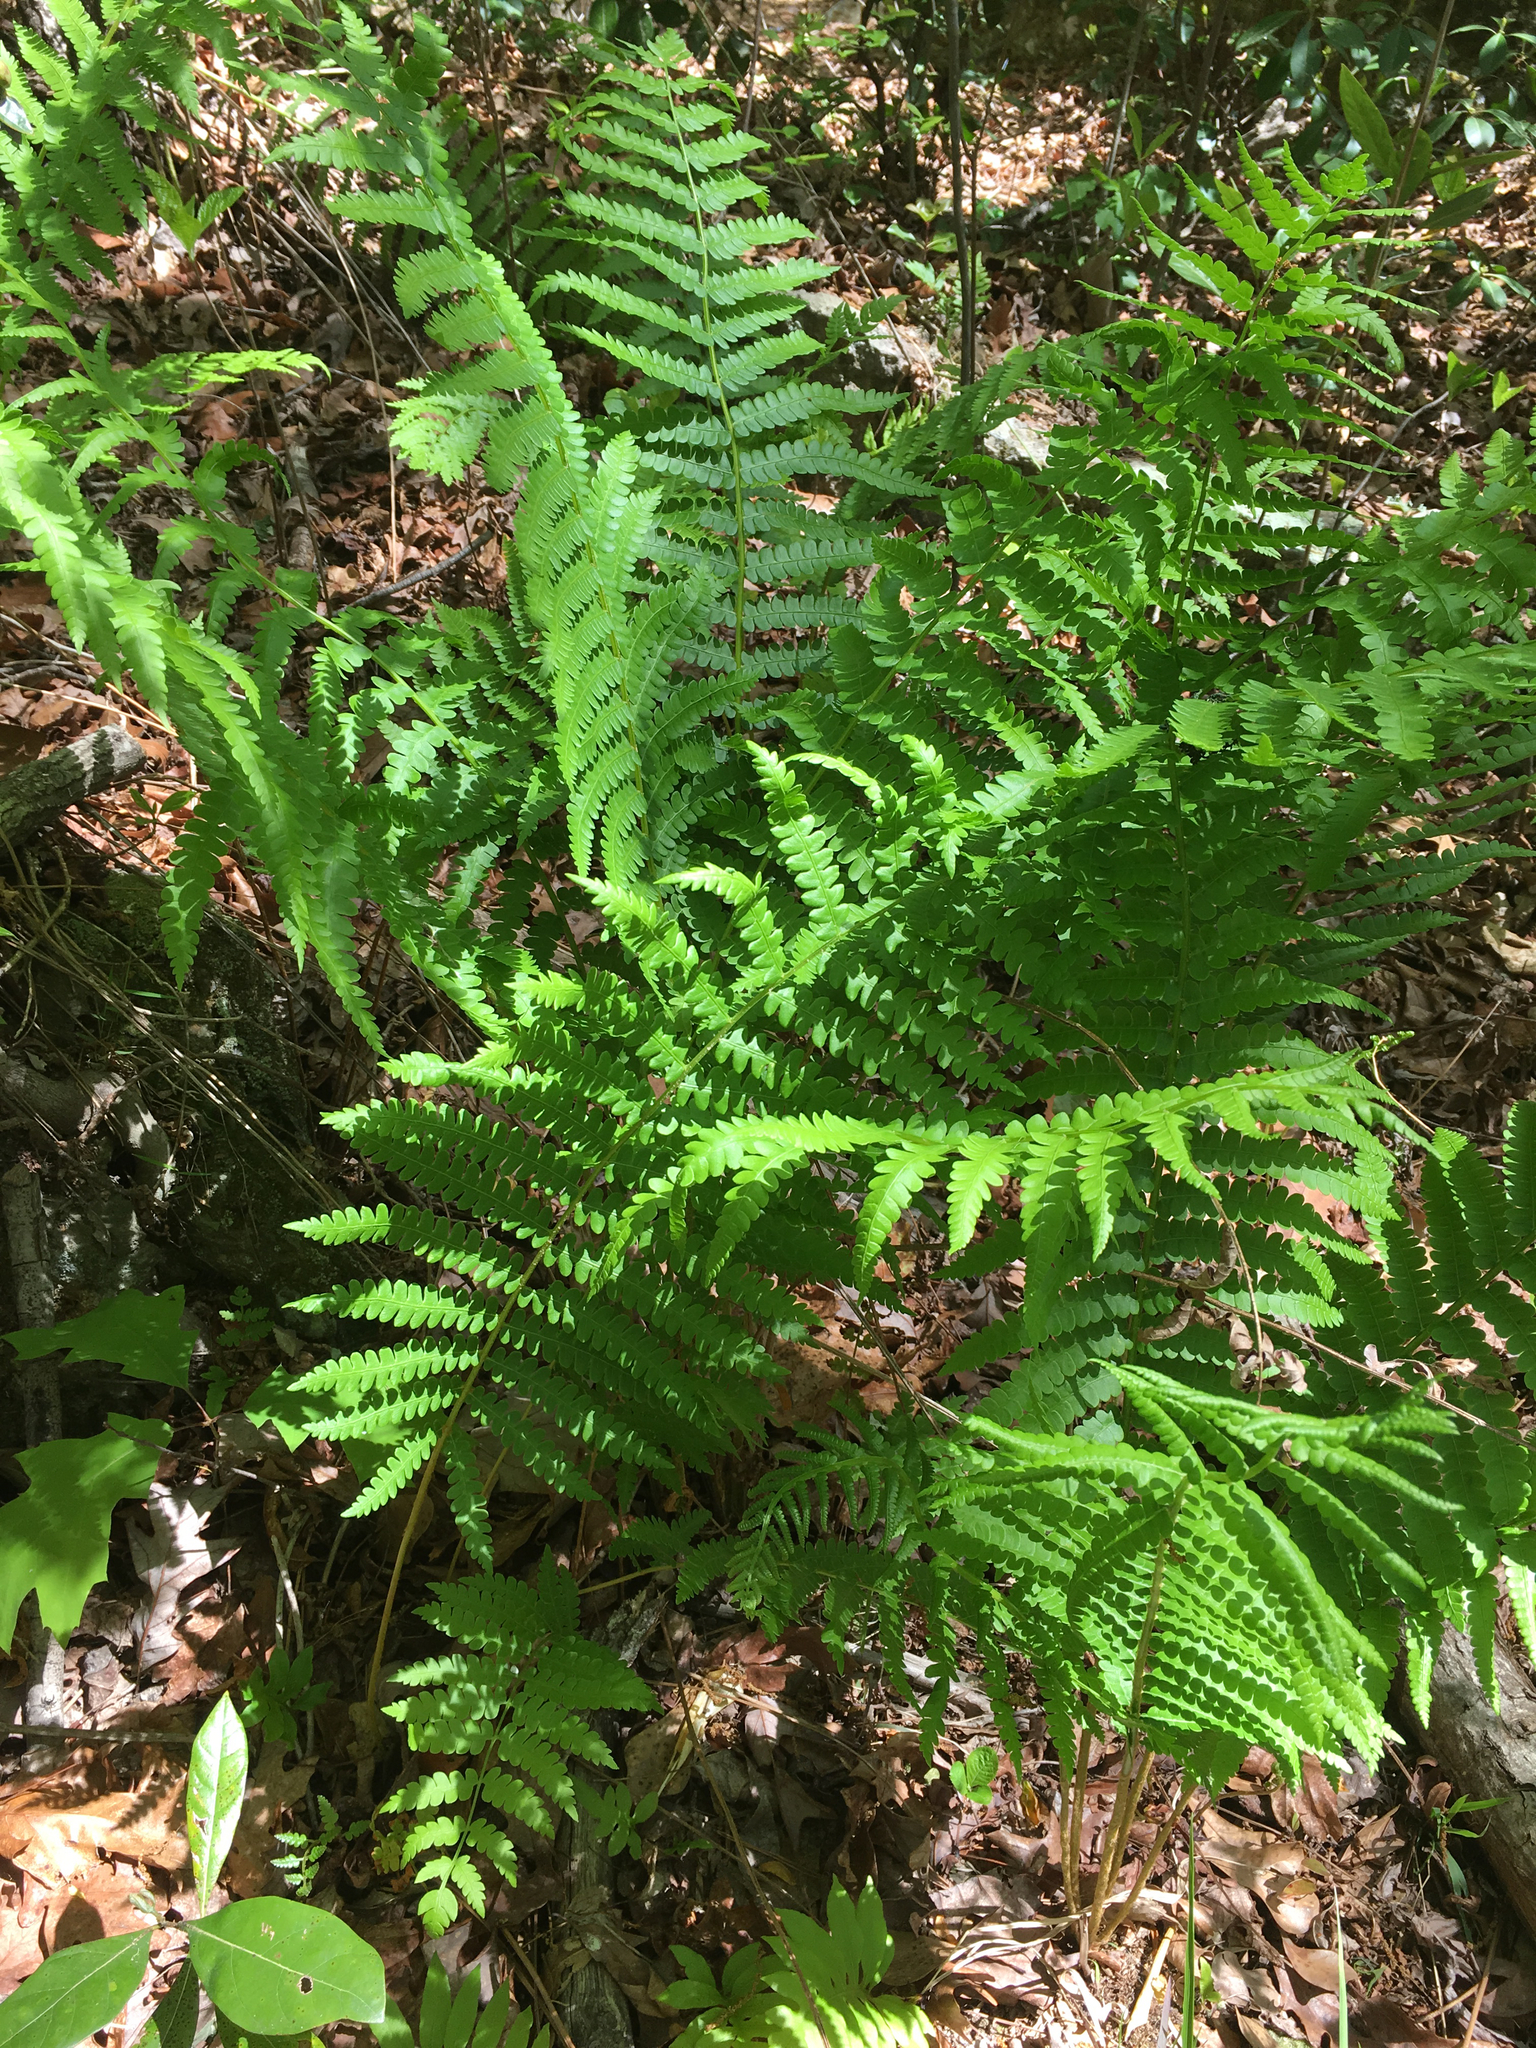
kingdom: Plantae
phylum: Tracheophyta
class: Polypodiopsida
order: Osmundales
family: Osmundaceae
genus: Osmundastrum
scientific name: Osmundastrum cinnamomeum
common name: Cinnamon fern
